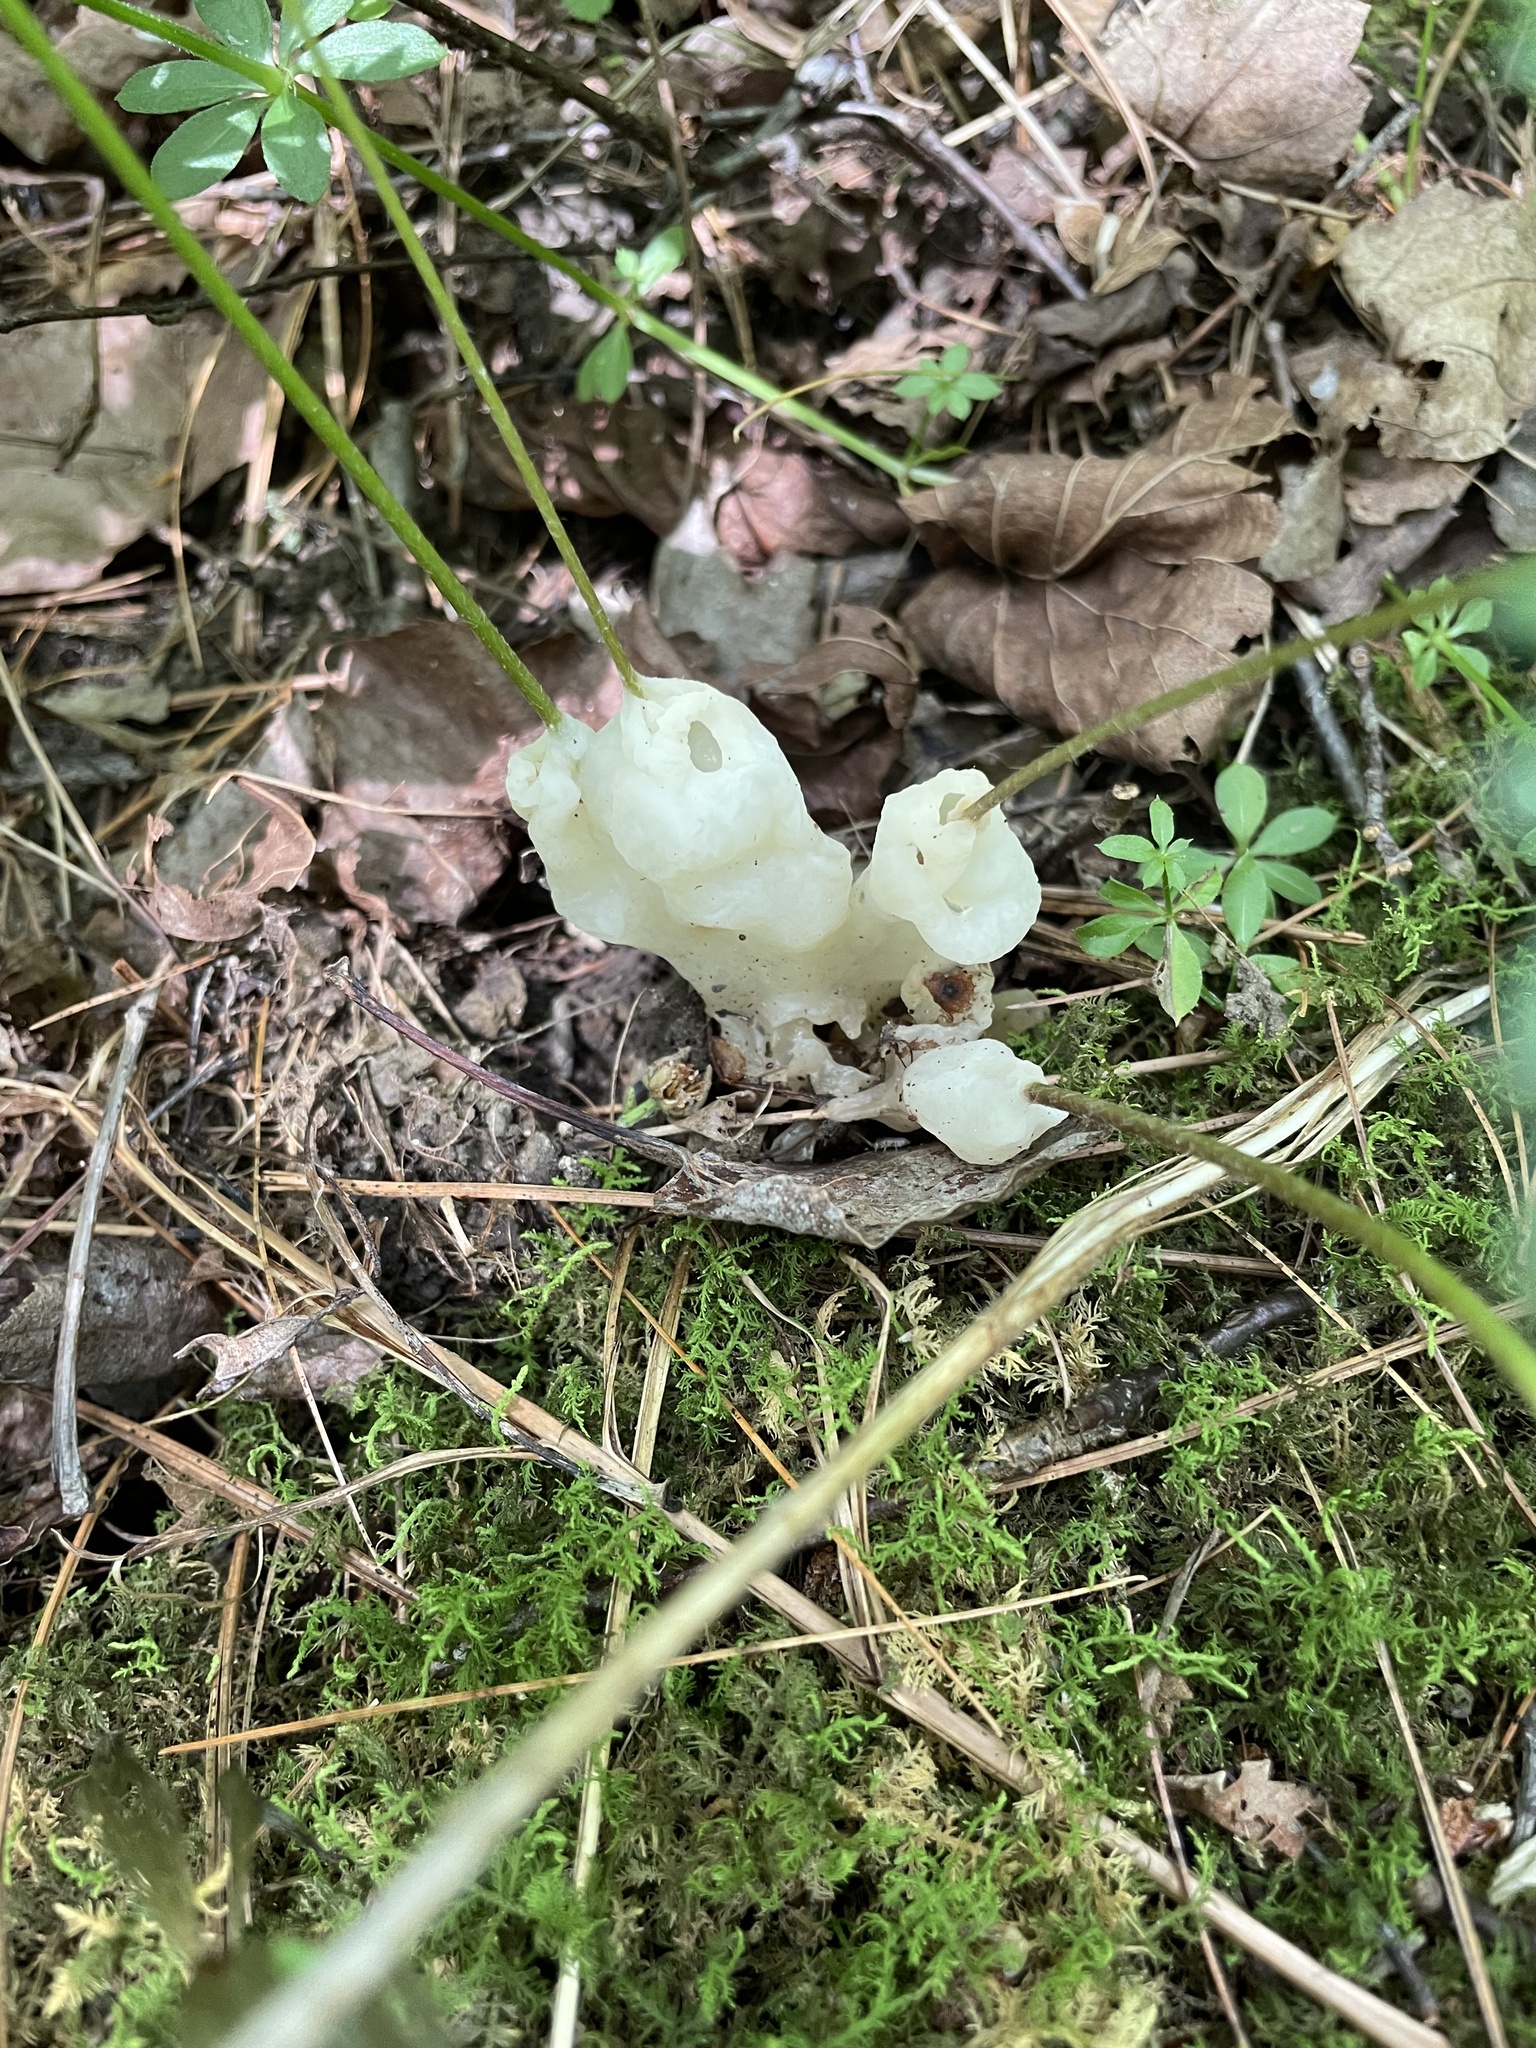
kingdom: Fungi
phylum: Basidiomycota
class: Agaricomycetes
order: Sebacinales
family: Sebacinaceae
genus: Helvellosebacina
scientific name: Helvellosebacina concrescens
